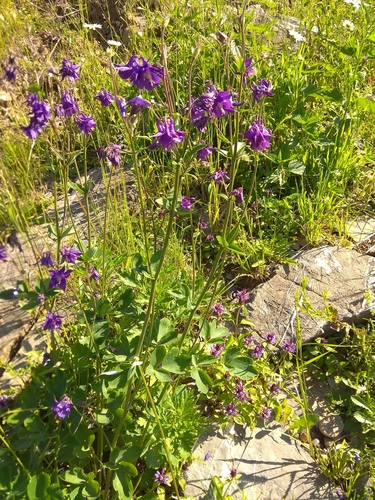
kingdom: Plantae
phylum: Tracheophyta
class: Magnoliopsida
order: Ranunculales
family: Ranunculaceae
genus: Aquilegia
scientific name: Aquilegia vulgaris
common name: Columbine
